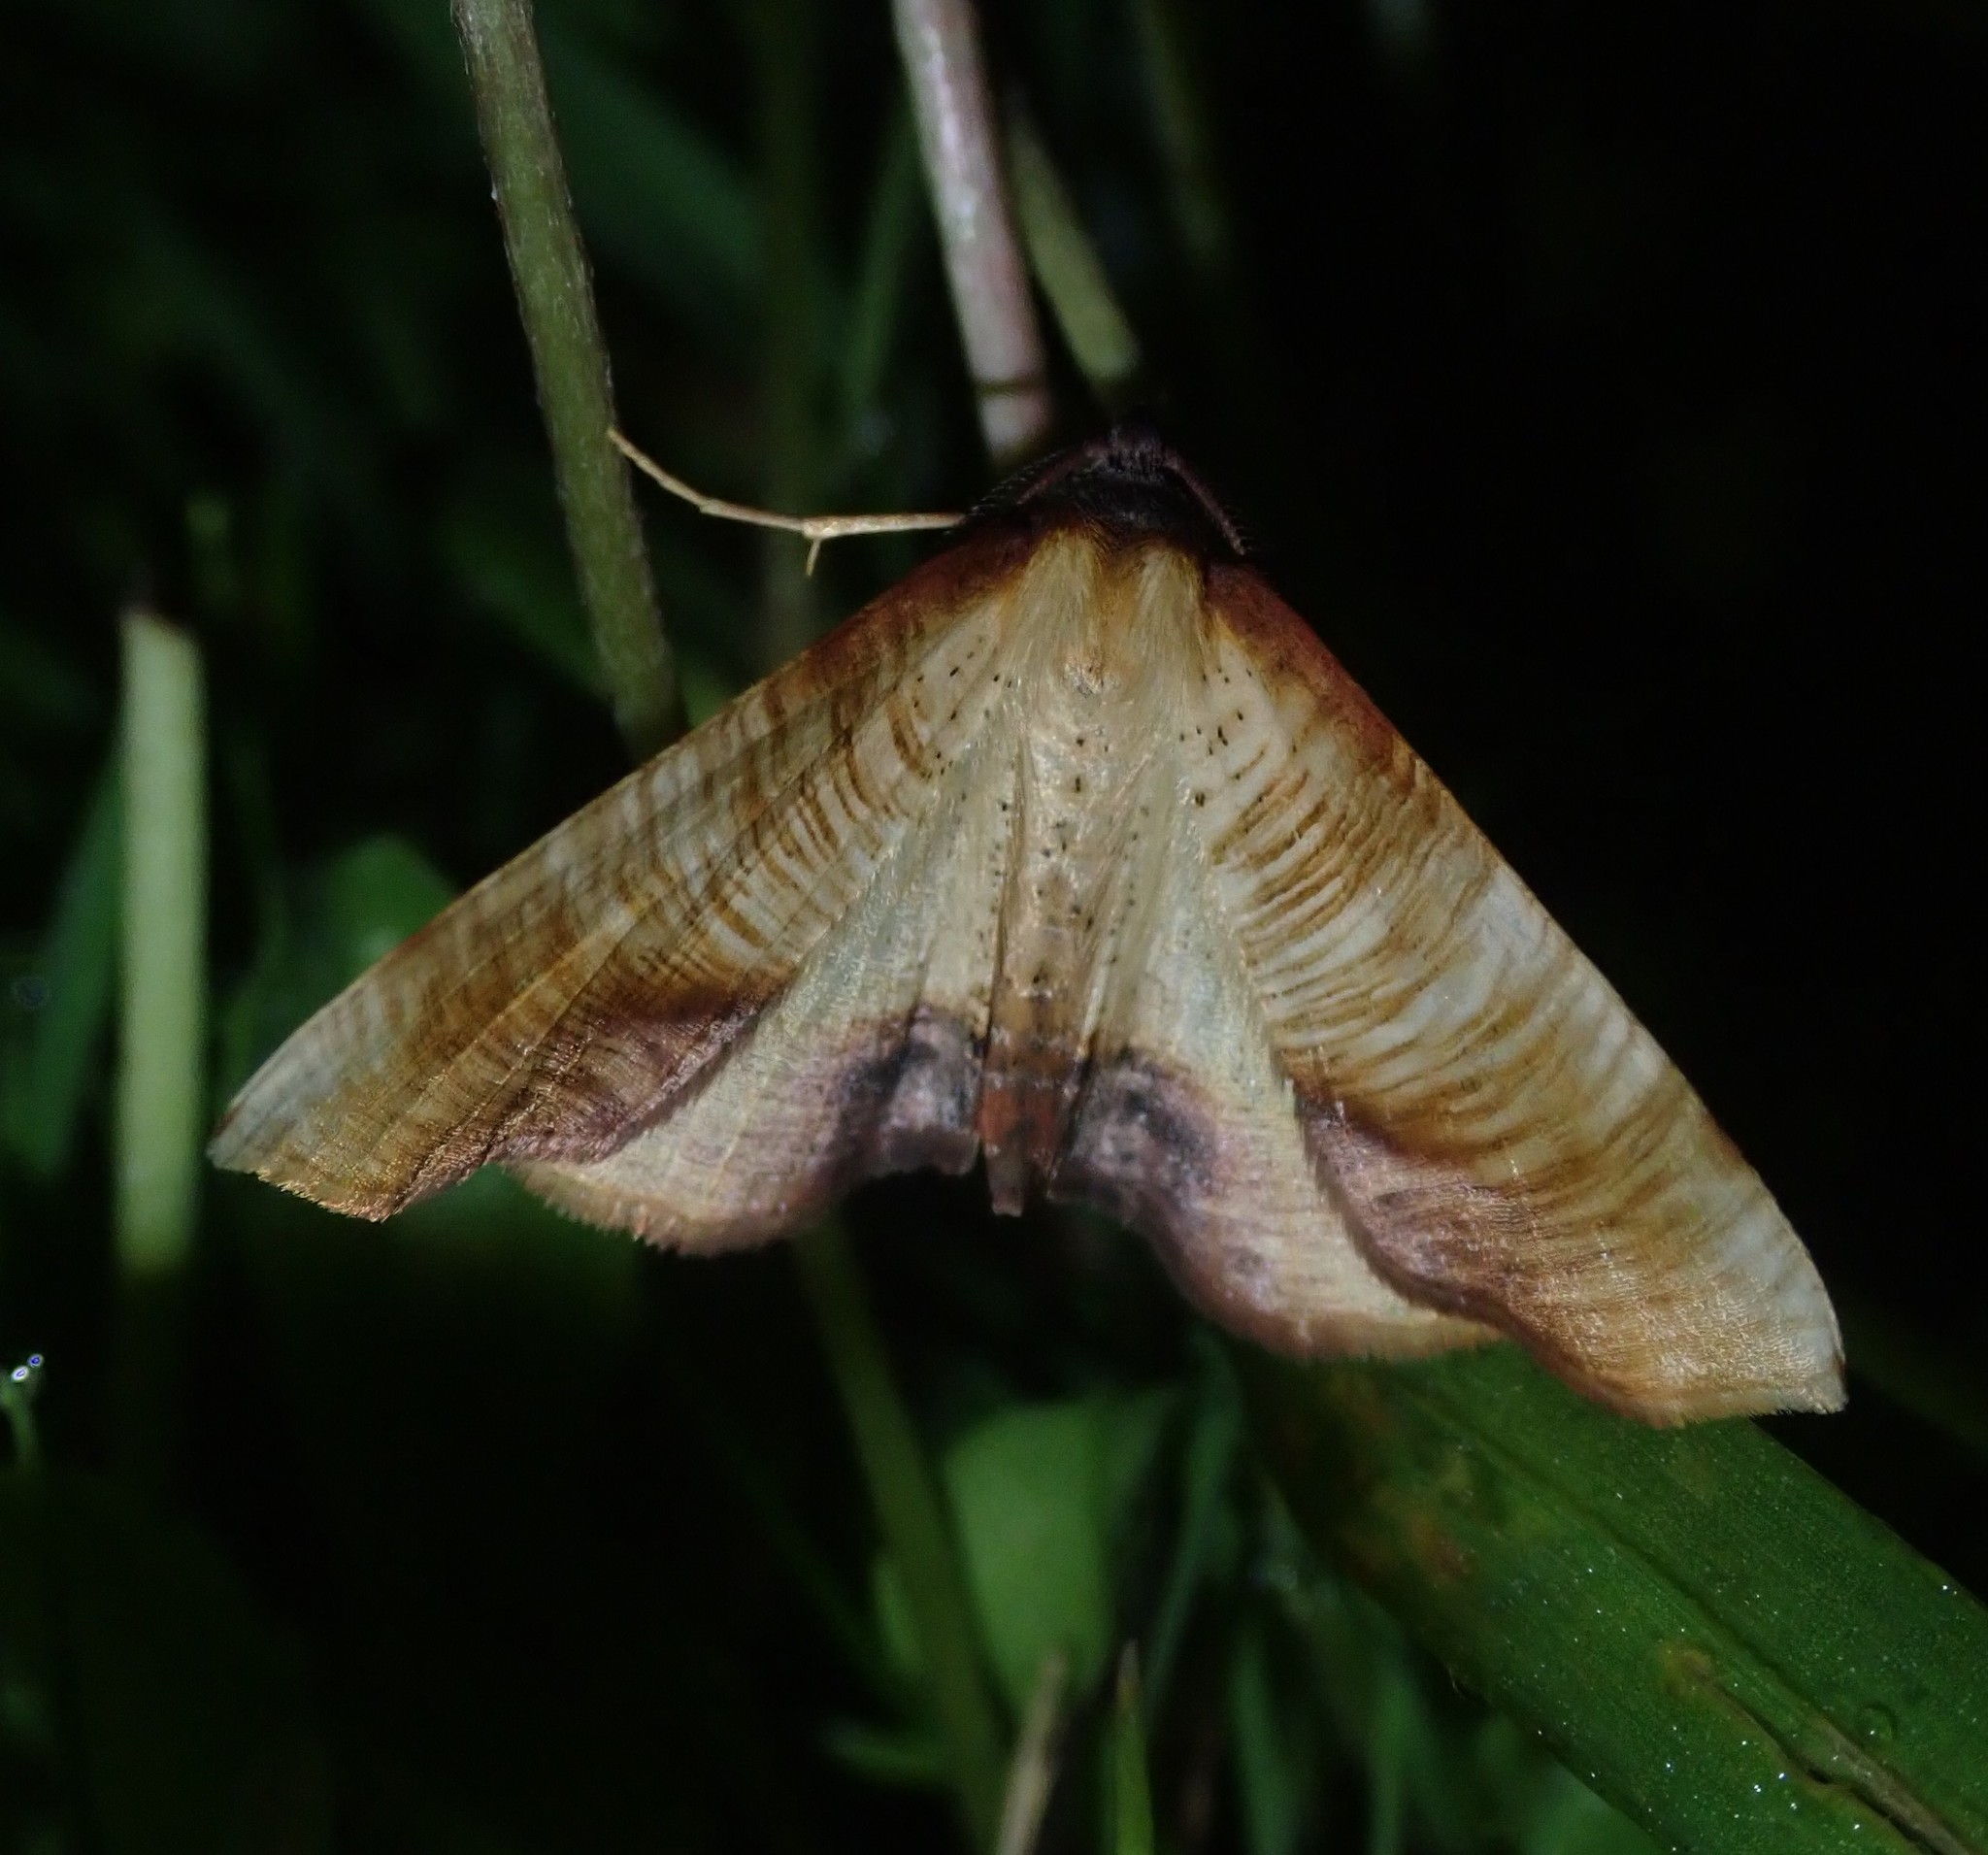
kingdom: Animalia
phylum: Arthropoda
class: Insecta
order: Lepidoptera
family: Geometridae
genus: Plagodis
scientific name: Plagodis dolabraria
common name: Scorched wing
